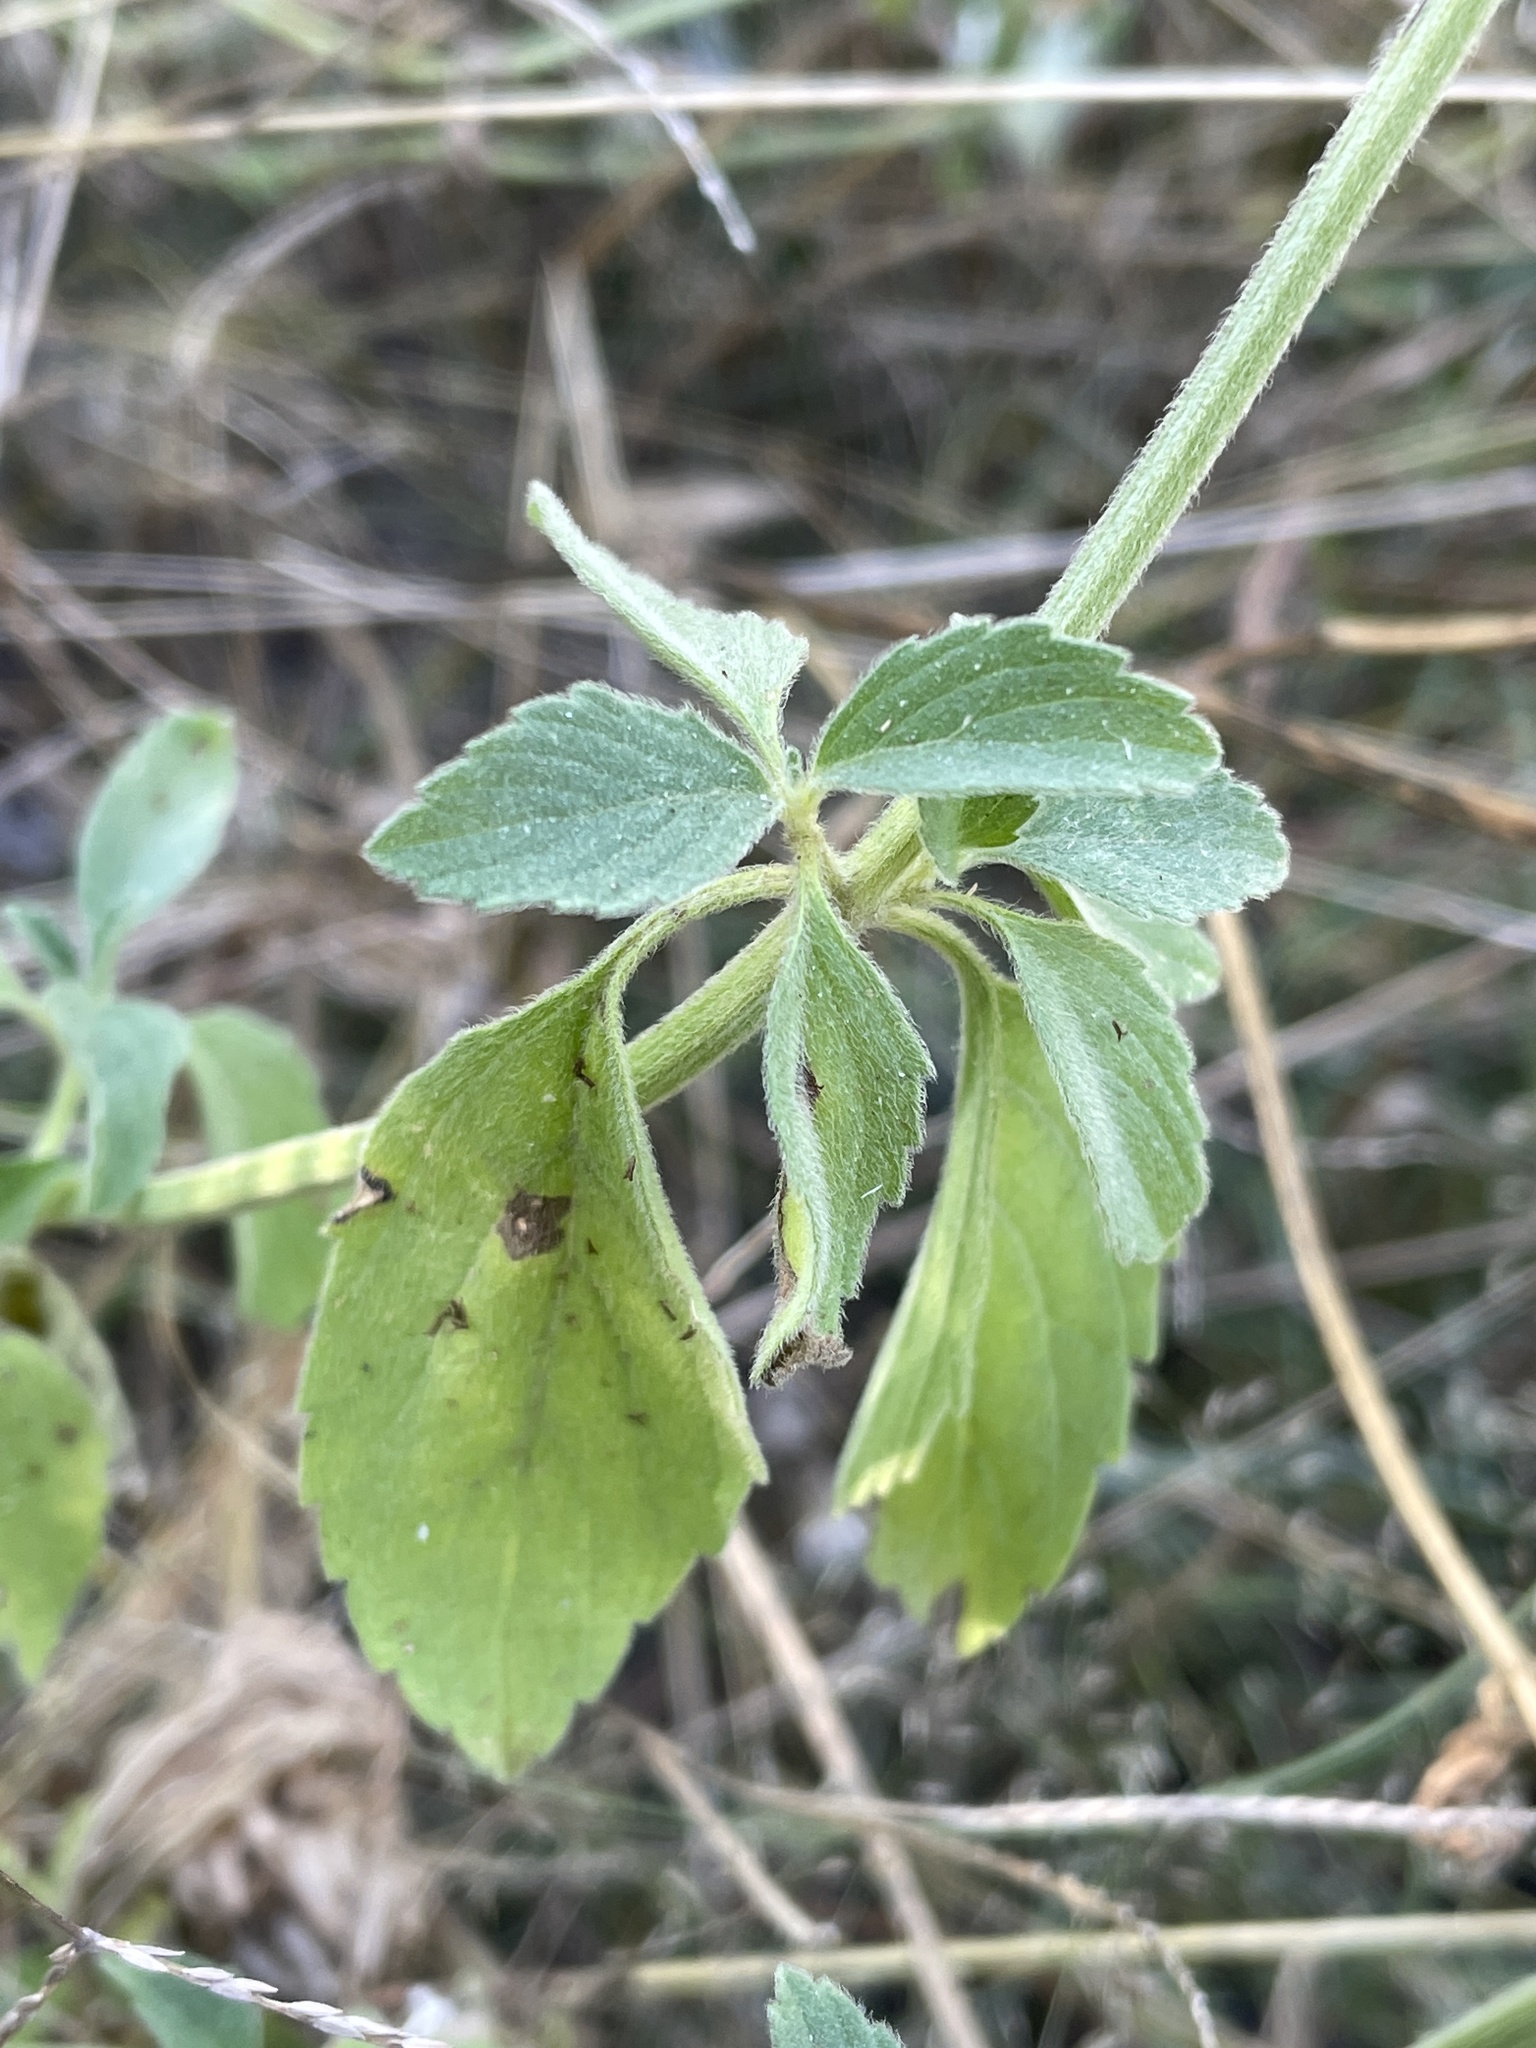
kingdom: Plantae
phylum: Tracheophyta
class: Magnoliopsida
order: Lamiales
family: Lamiaceae
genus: Acrotome
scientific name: Acrotome inflata
